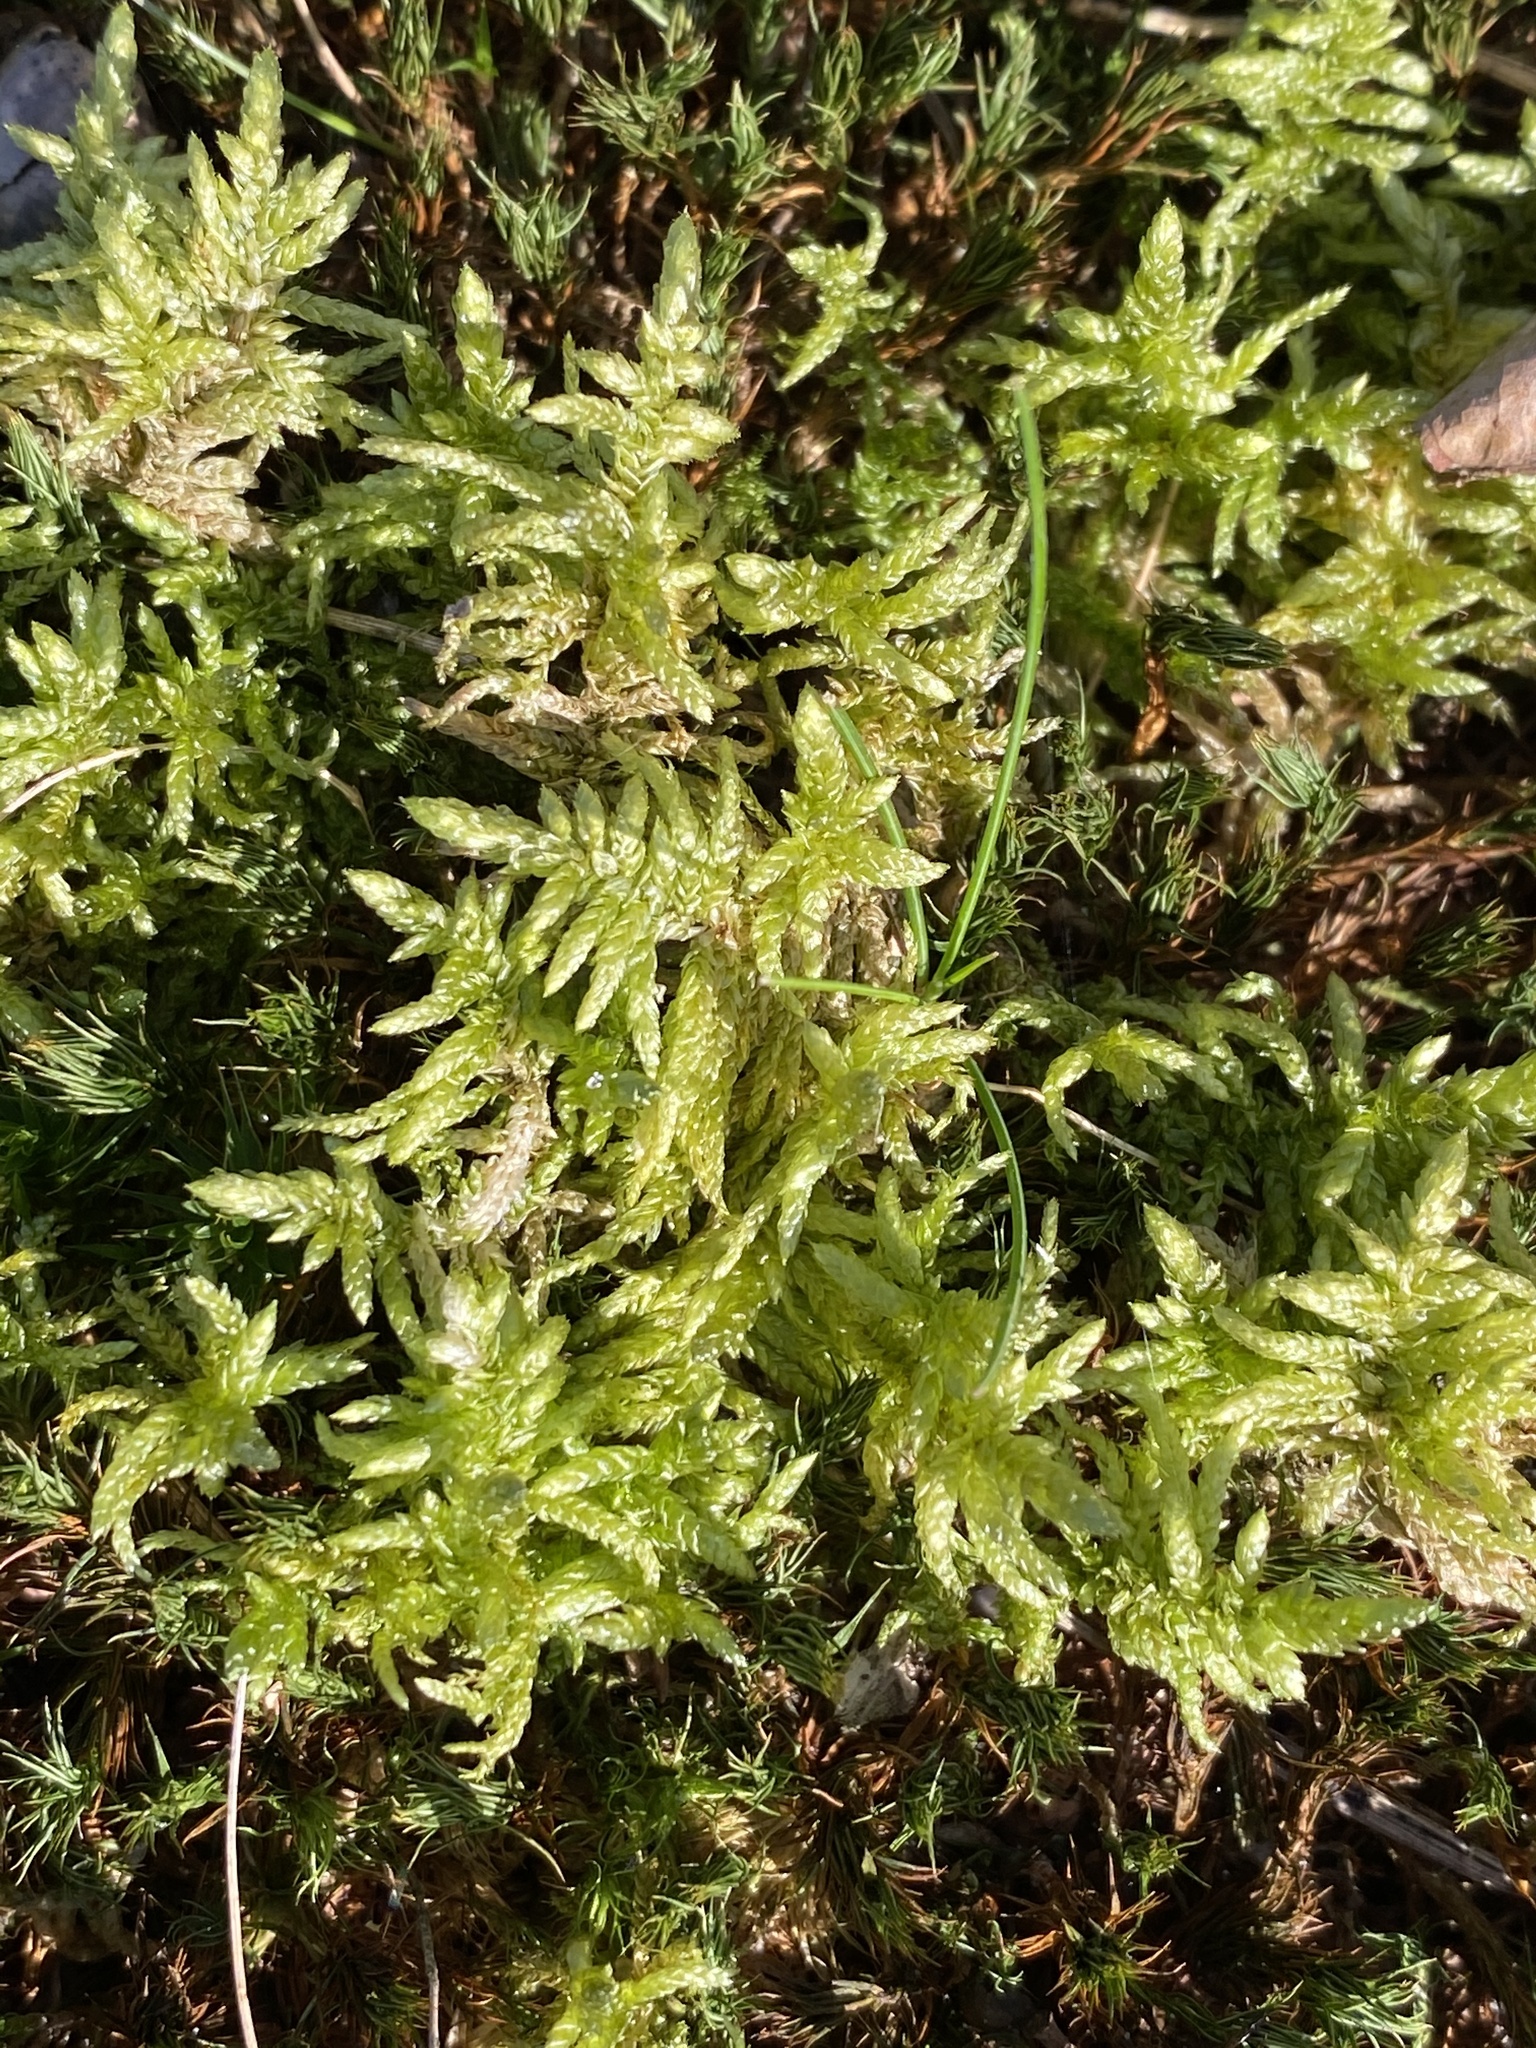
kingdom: Plantae
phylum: Bryophyta
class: Bryopsida
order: Hypnales
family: Brachytheciaceae
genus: Pseudoscleropodium
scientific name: Pseudoscleropodium purum
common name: Neat feather-moss
